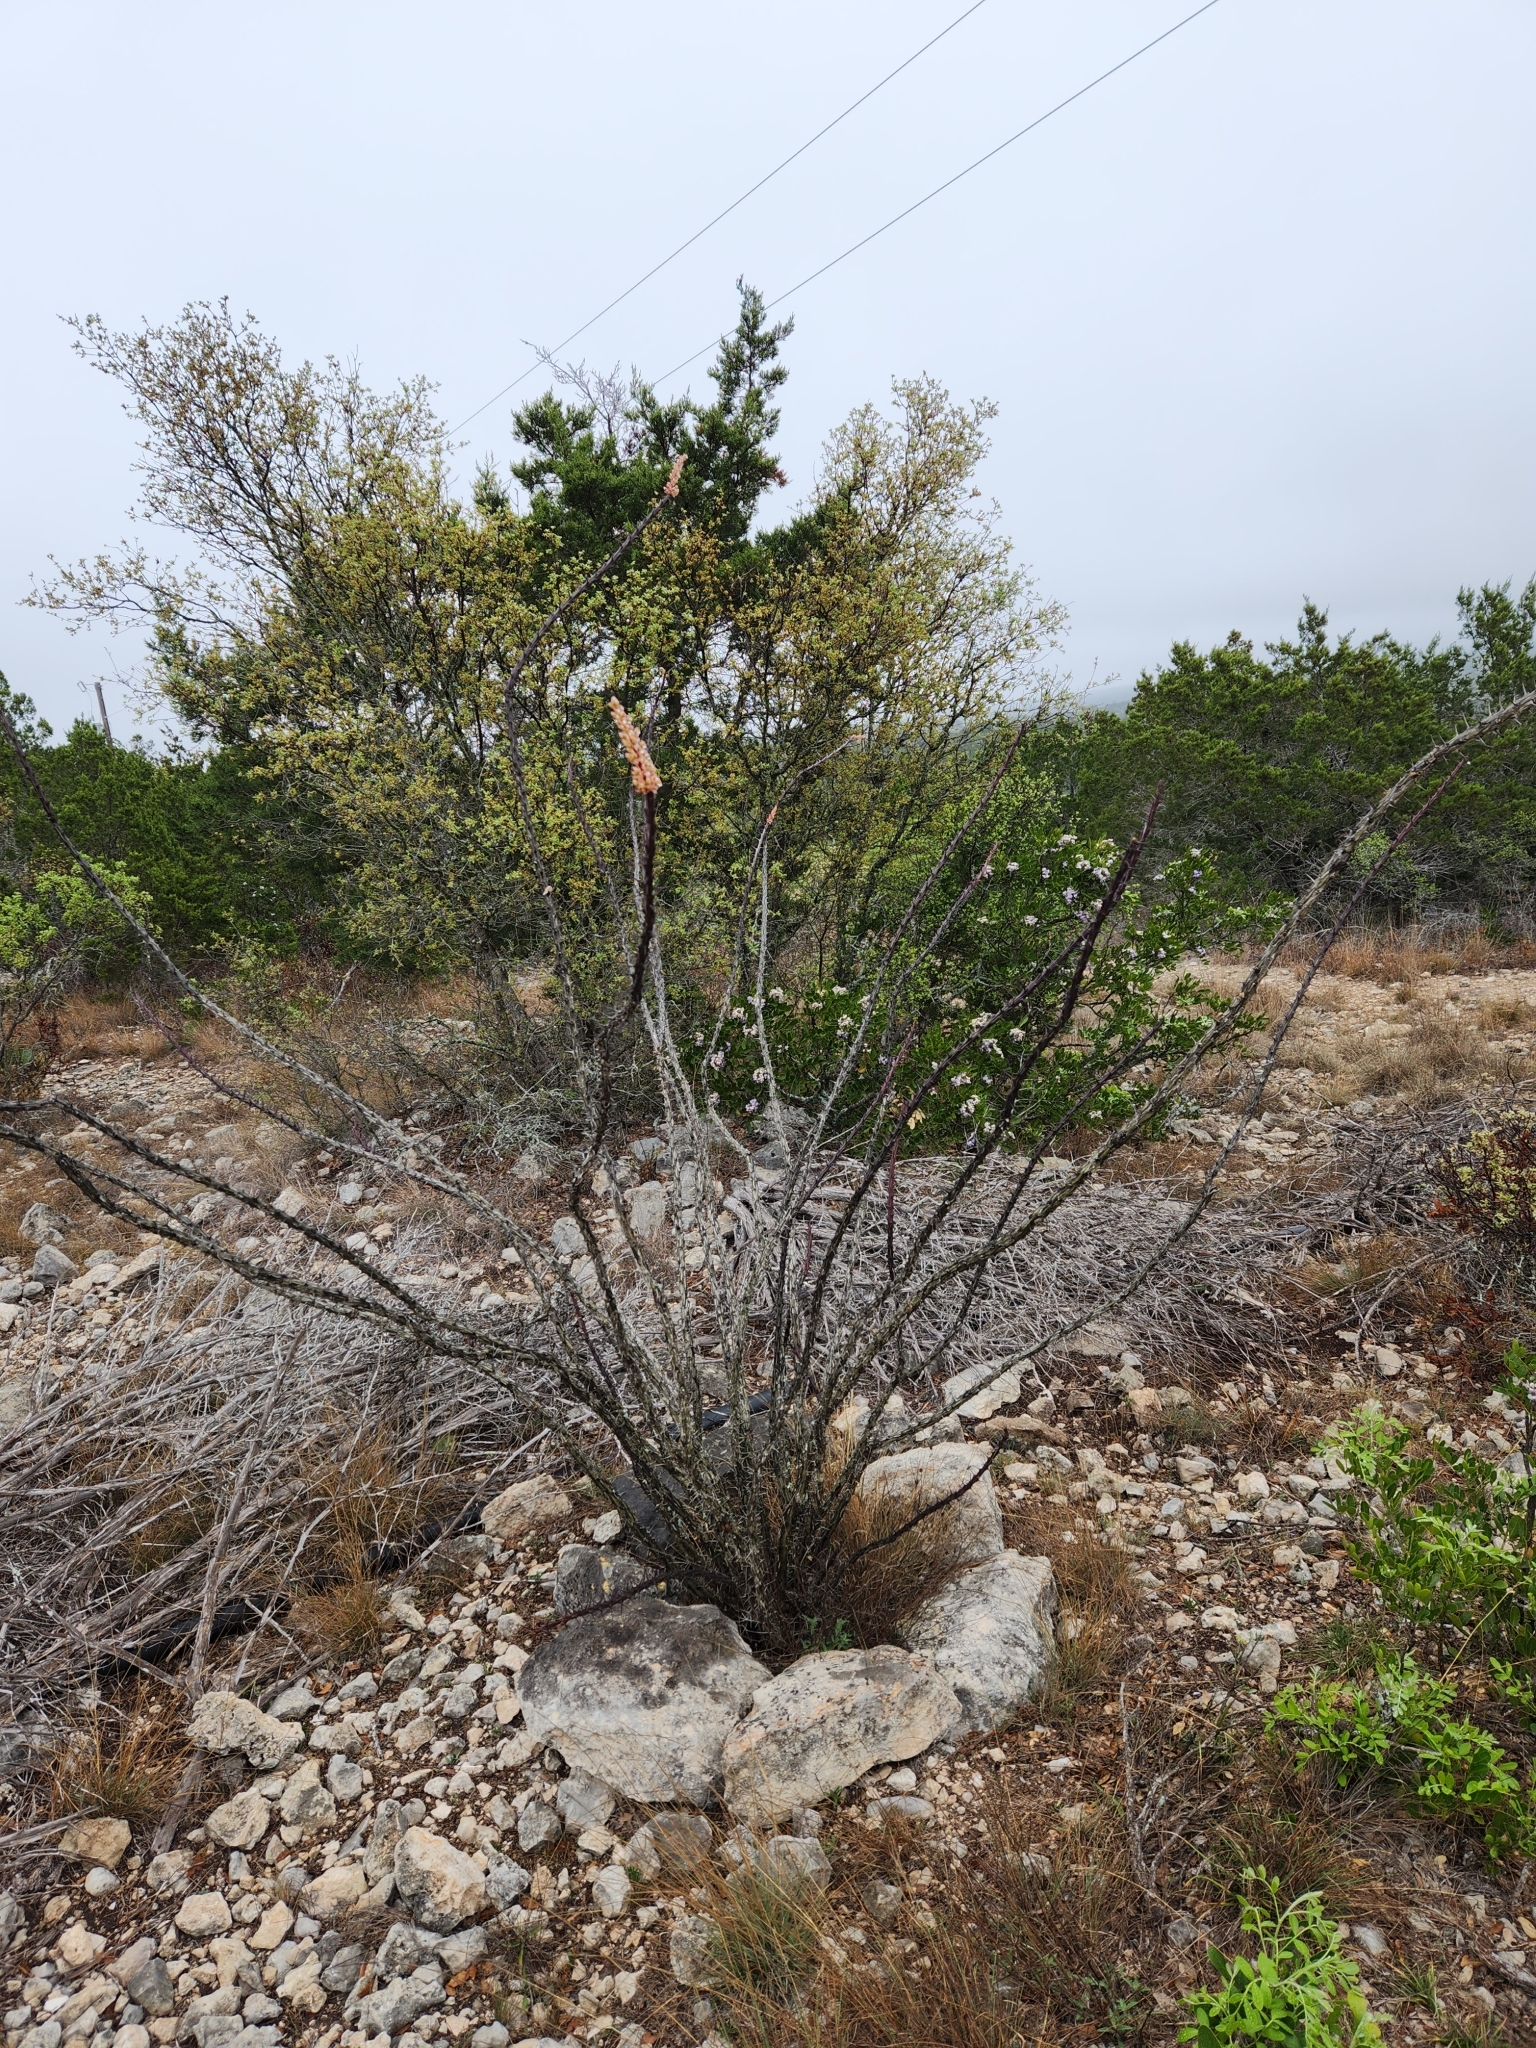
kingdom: Plantae
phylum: Tracheophyta
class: Magnoliopsida
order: Ericales
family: Fouquieriaceae
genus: Fouquieria
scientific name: Fouquieria splendens
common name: Vine-cactus
